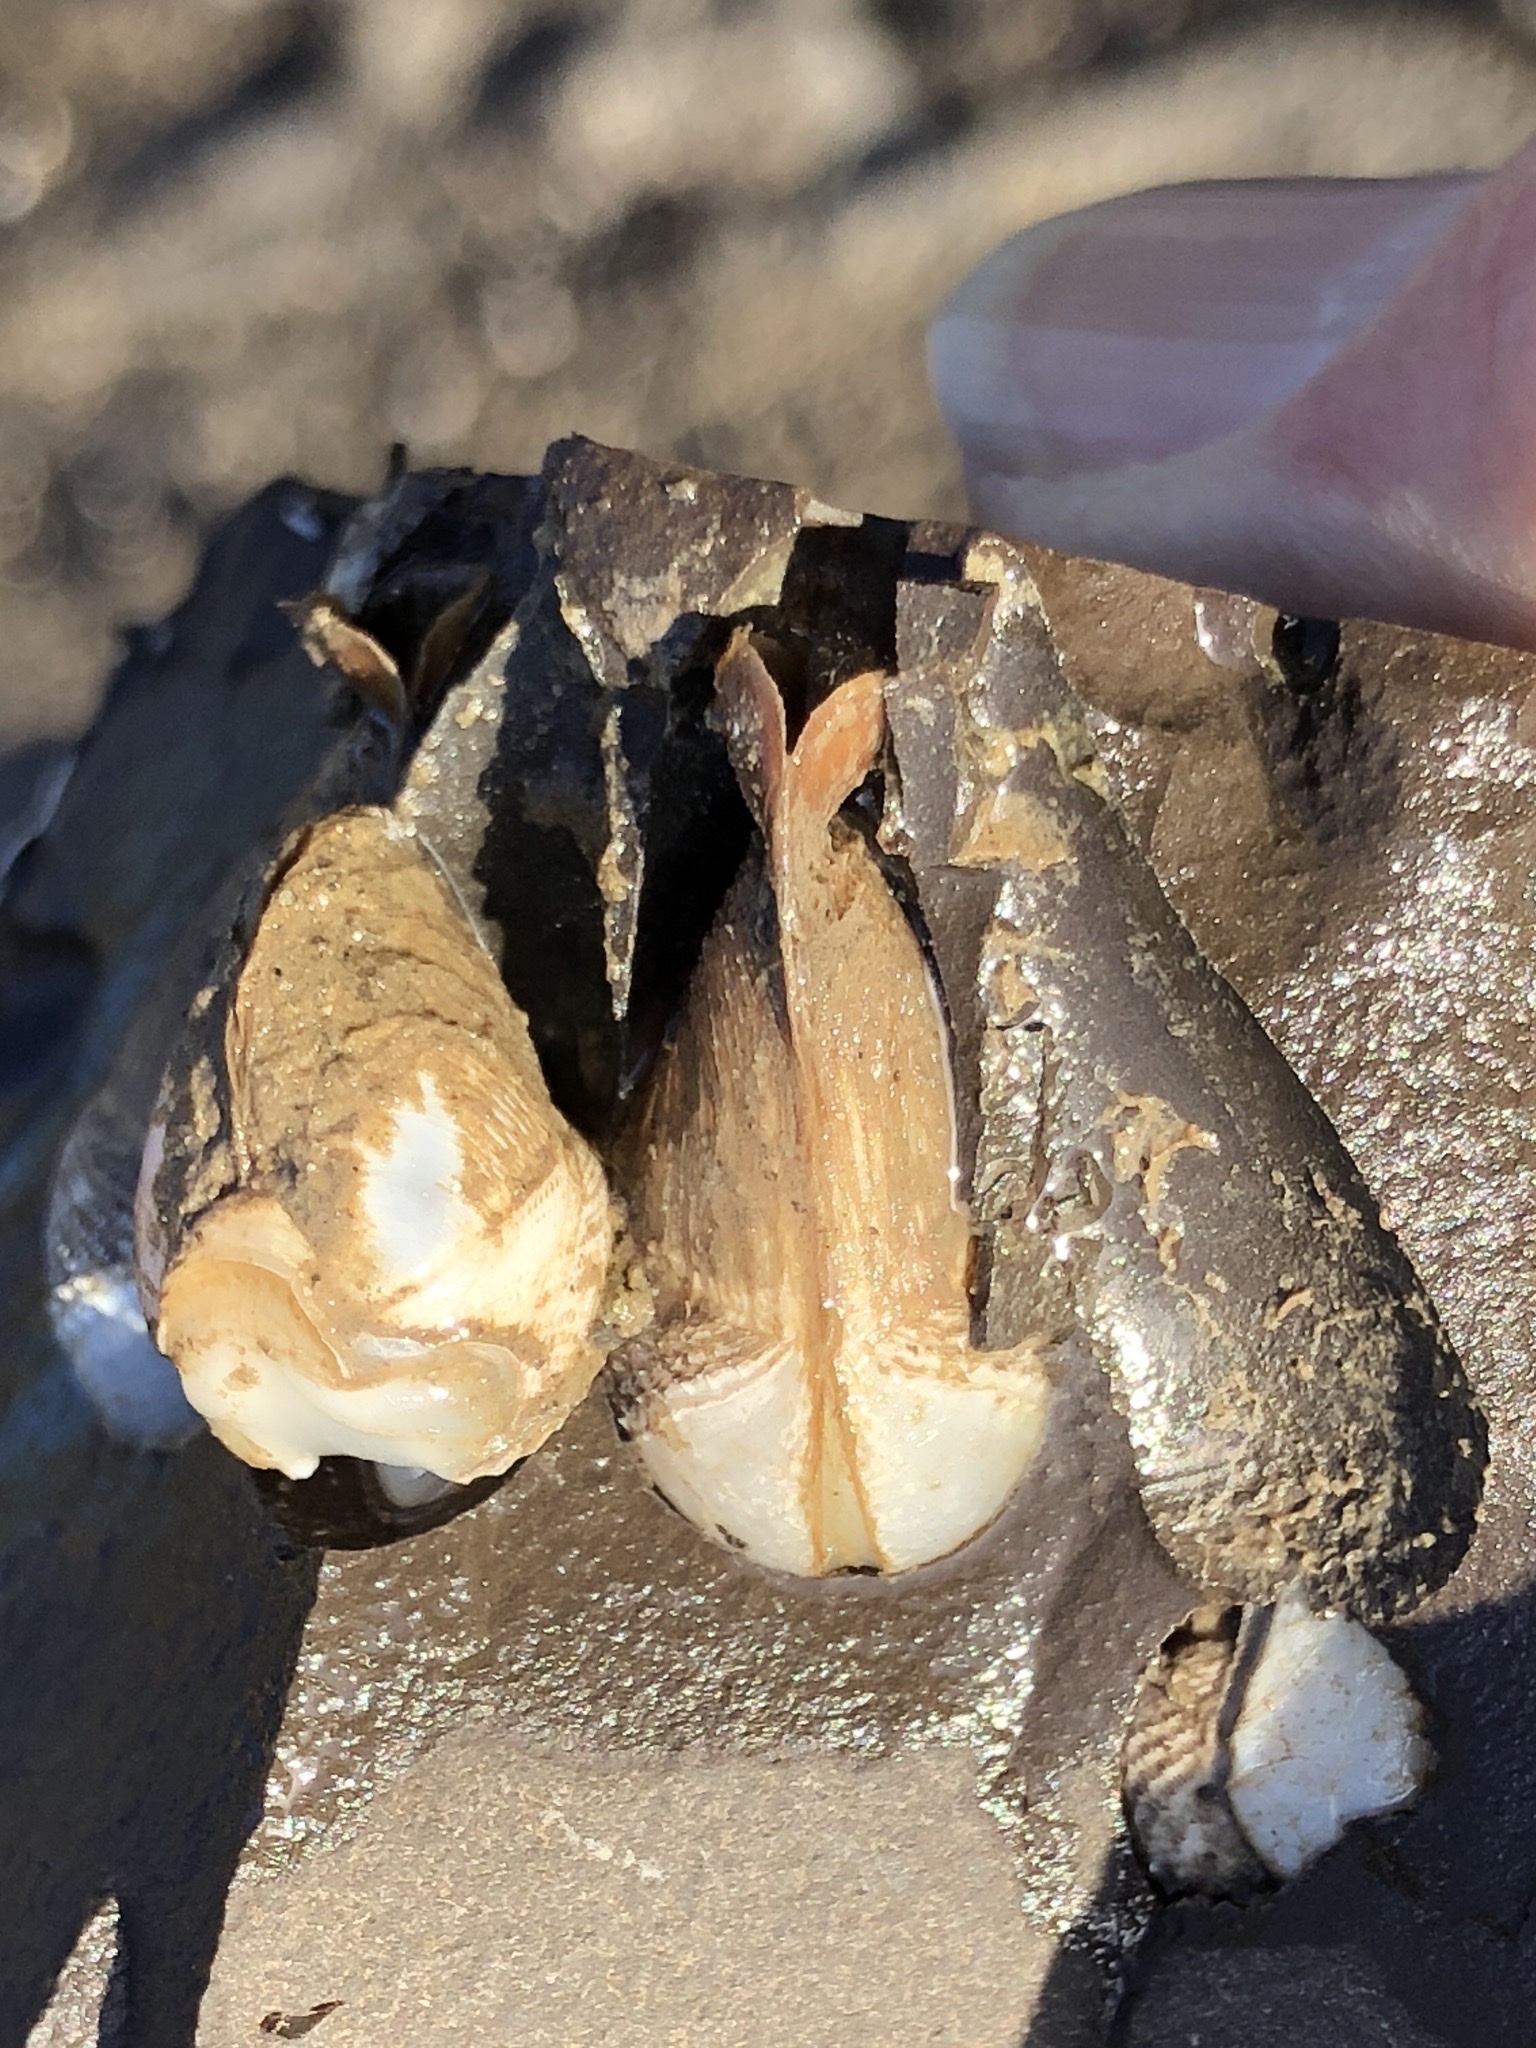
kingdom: Animalia
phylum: Mollusca
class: Bivalvia
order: Myida
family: Pholadidae
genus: Penitella
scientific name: Penitella penita
